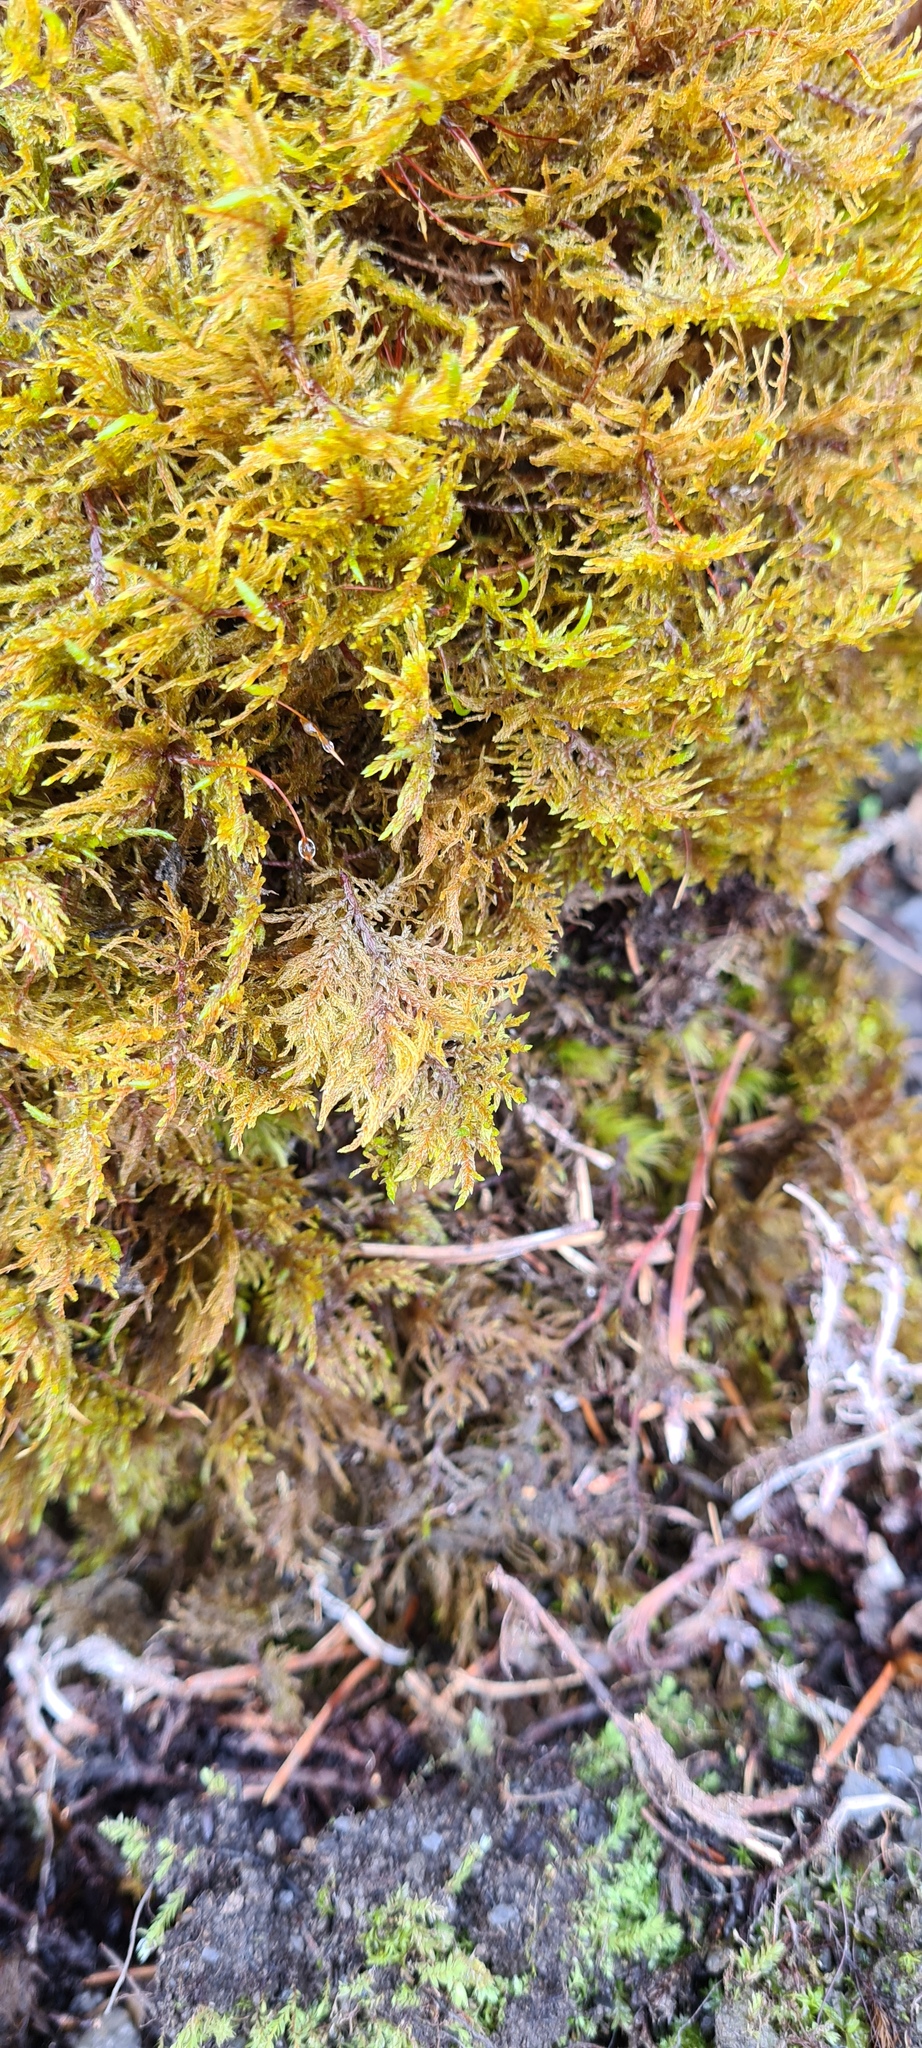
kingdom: Plantae
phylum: Bryophyta
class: Bryopsida
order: Hypnales
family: Hylocomiaceae
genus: Hylocomium
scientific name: Hylocomium splendens
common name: Stairstep moss
